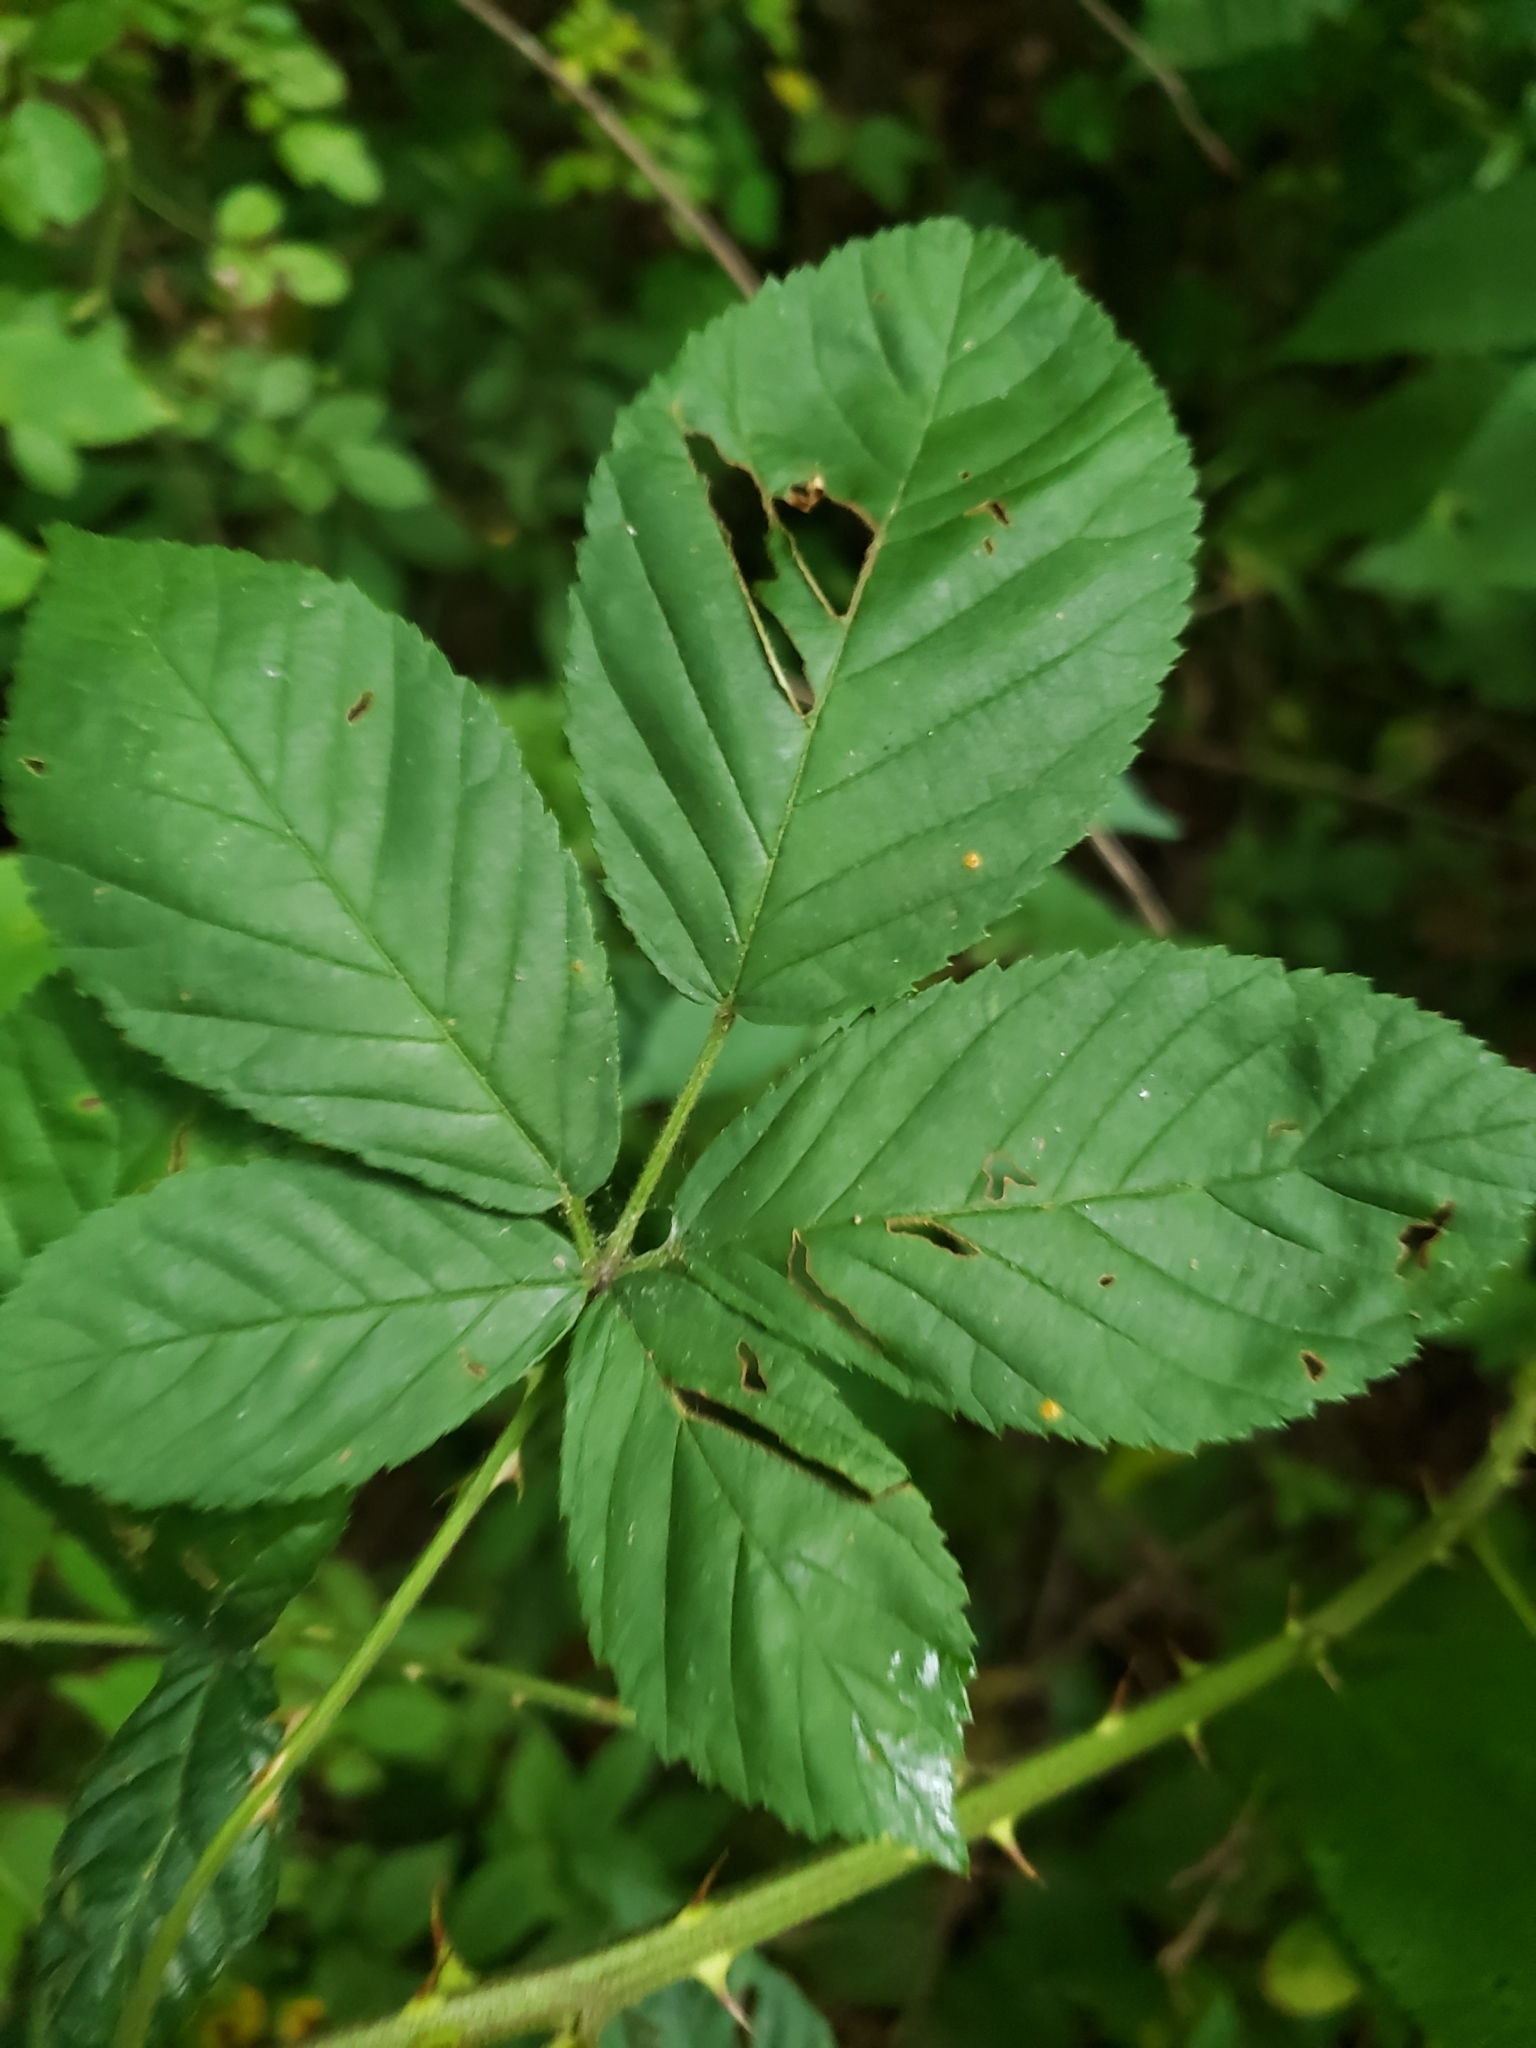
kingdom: Animalia
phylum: Arthropoda
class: Insecta
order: Diptera
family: Cecidomyiidae
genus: Neolasioptera
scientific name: Neolasioptera farinosa
